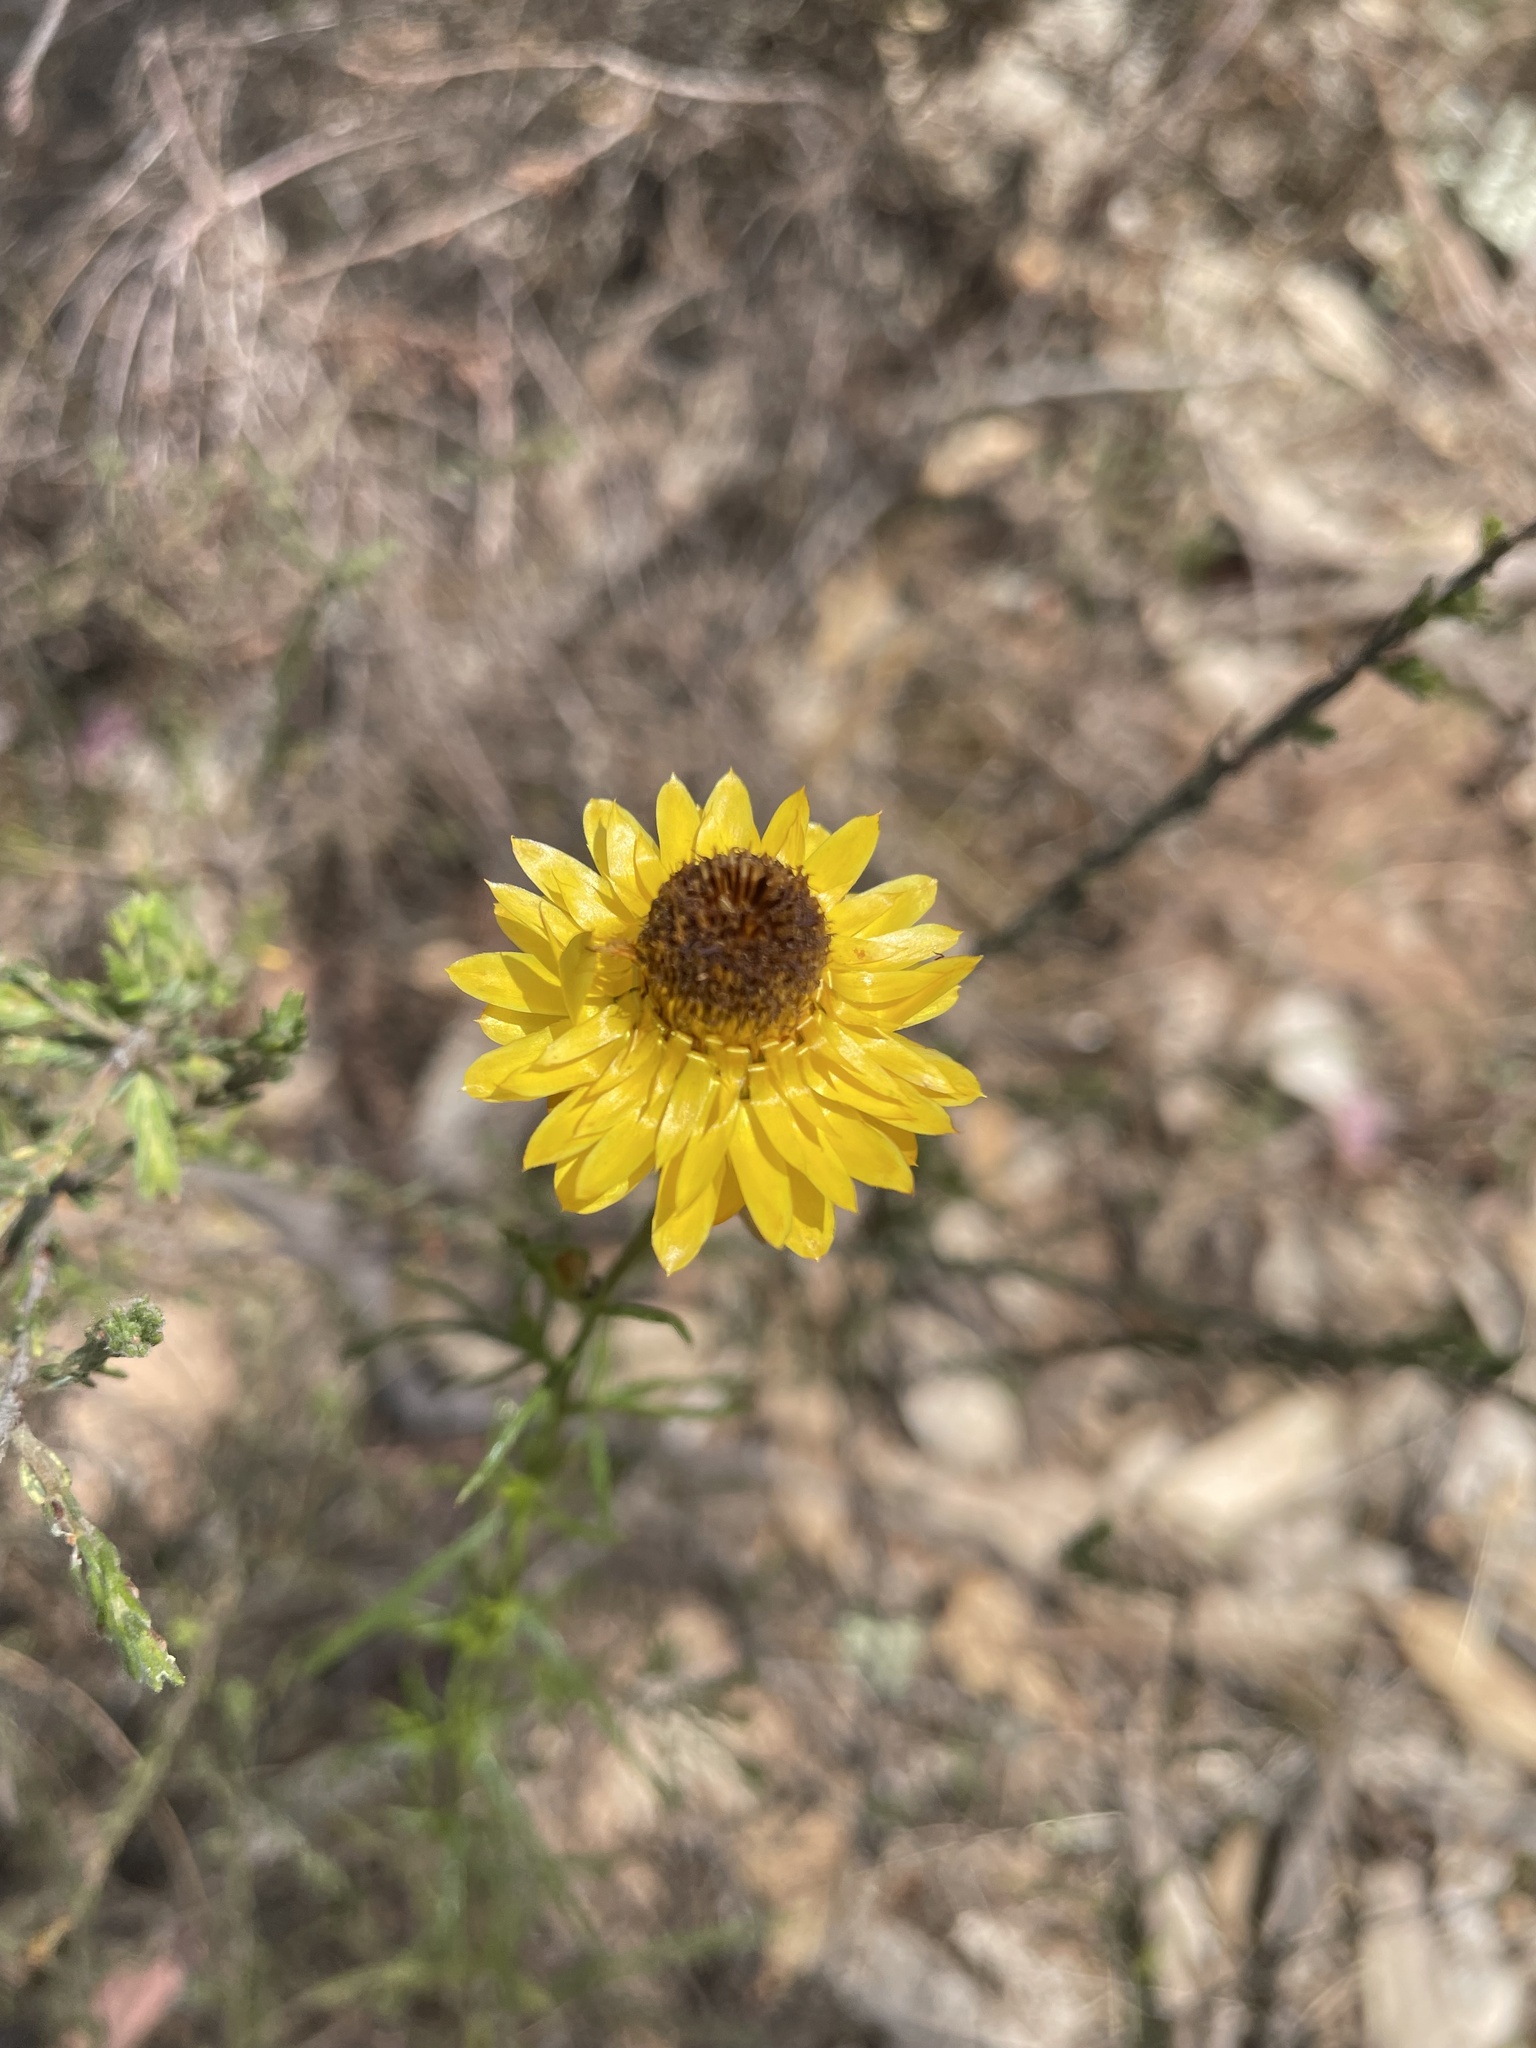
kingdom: Plantae
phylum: Tracheophyta
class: Magnoliopsida
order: Asterales
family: Asteraceae
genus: Xerochrysum
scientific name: Xerochrysum viscosum
